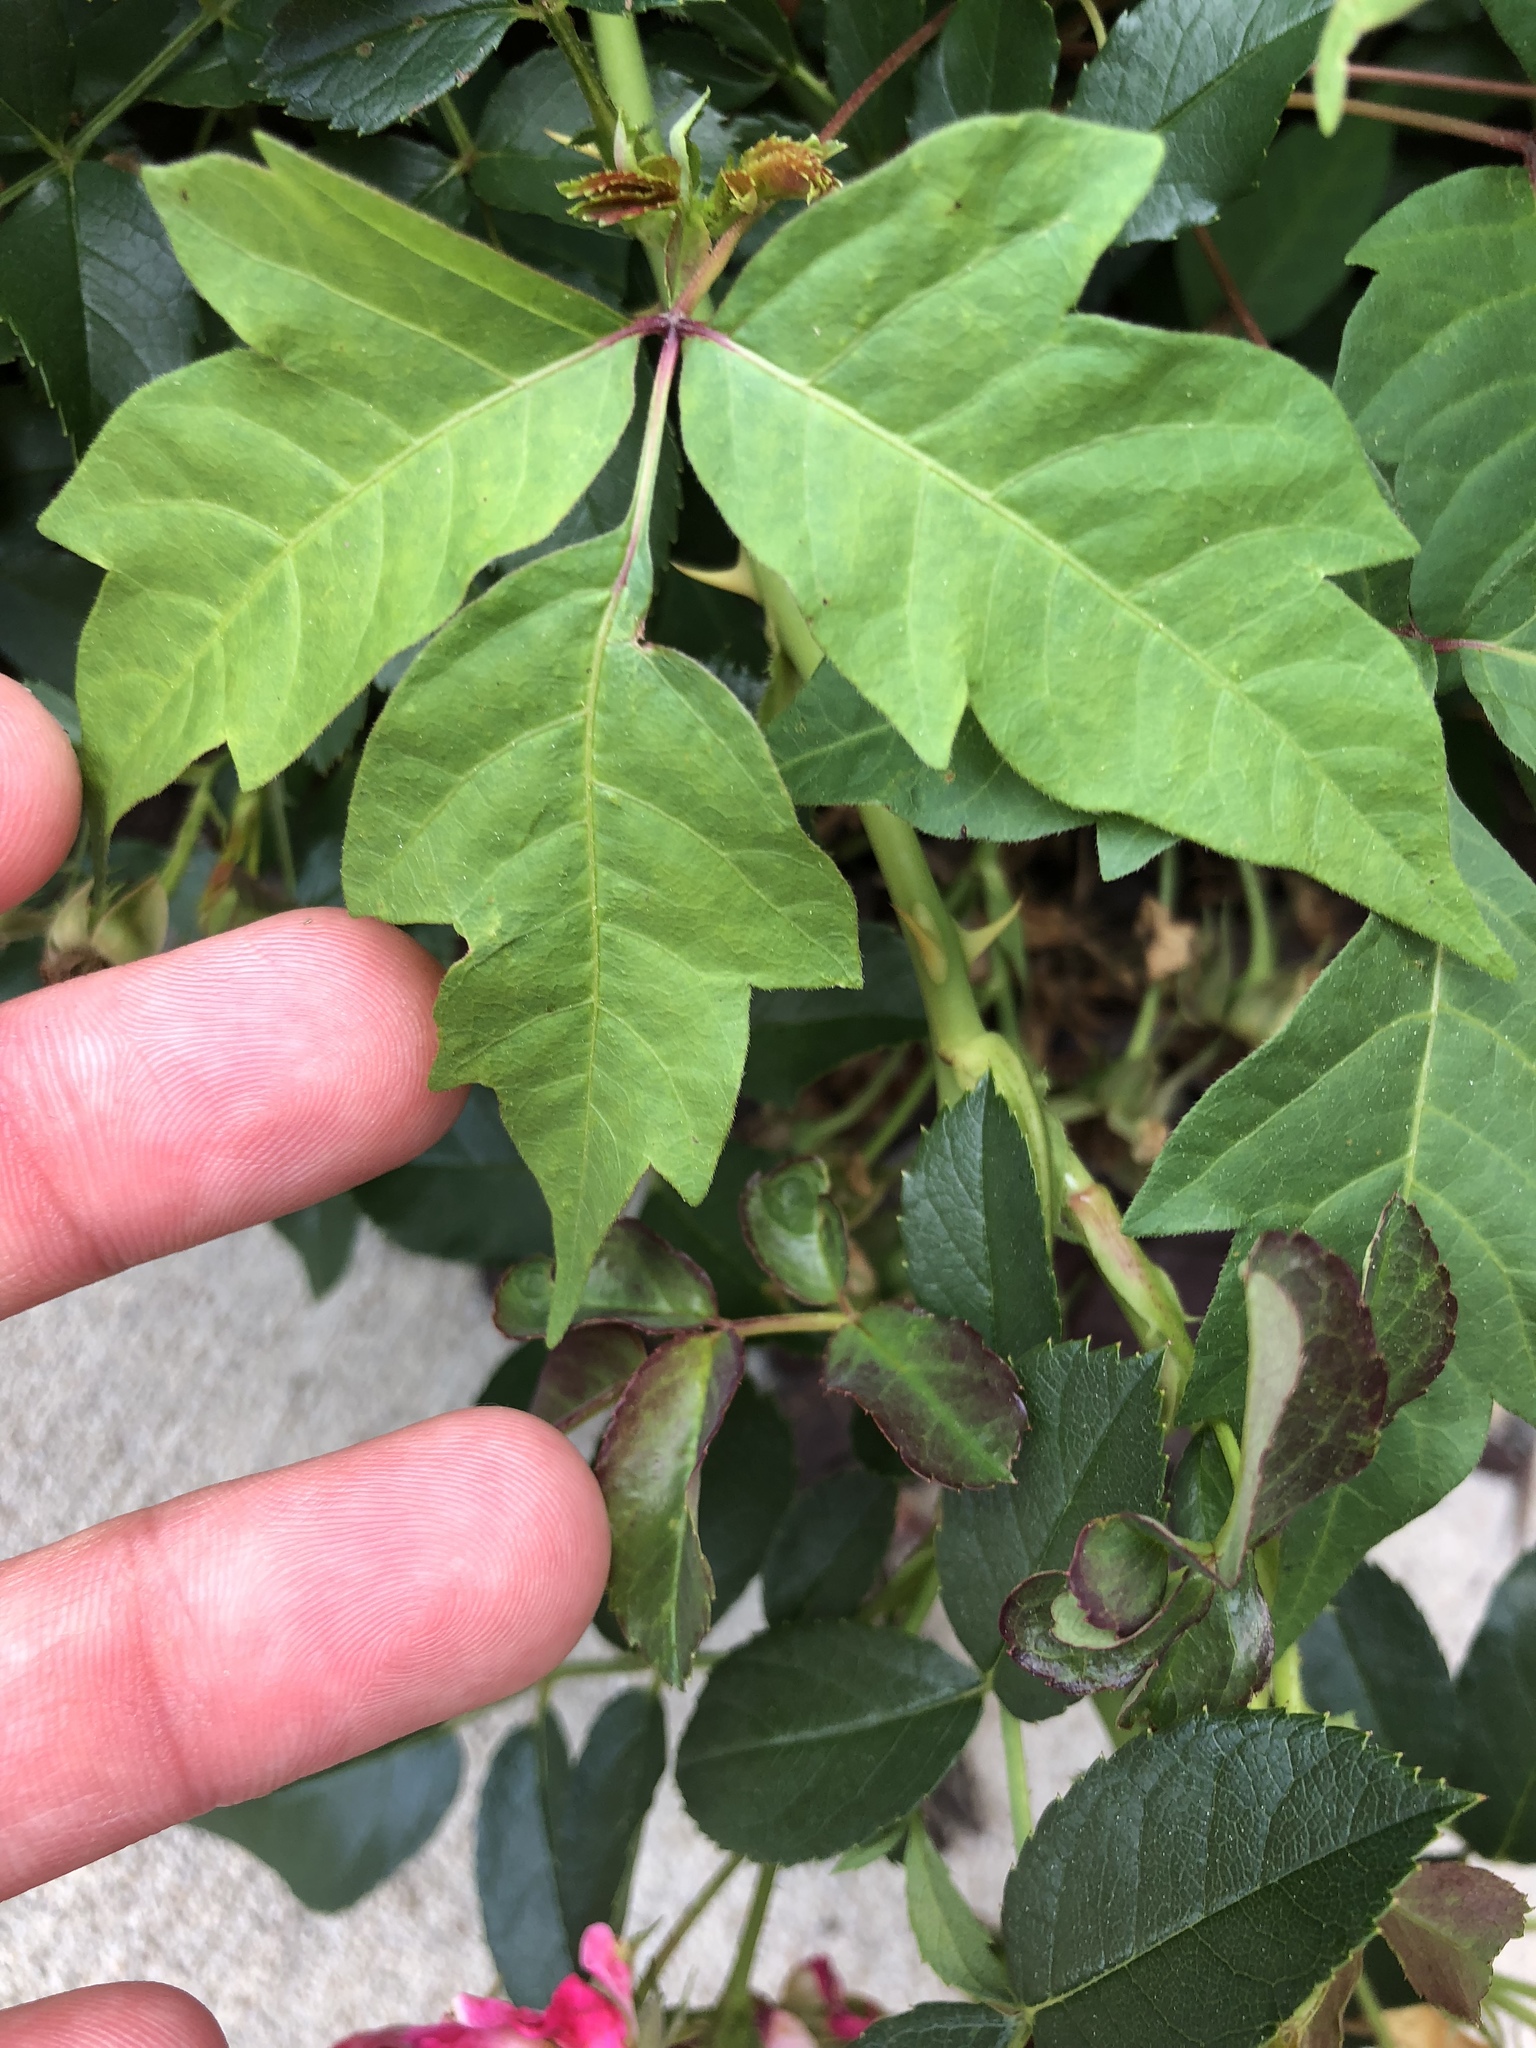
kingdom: Plantae
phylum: Tracheophyta
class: Magnoliopsida
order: Sapindales
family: Anacardiaceae
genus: Toxicodendron
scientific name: Toxicodendron radicans
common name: Poison ivy
